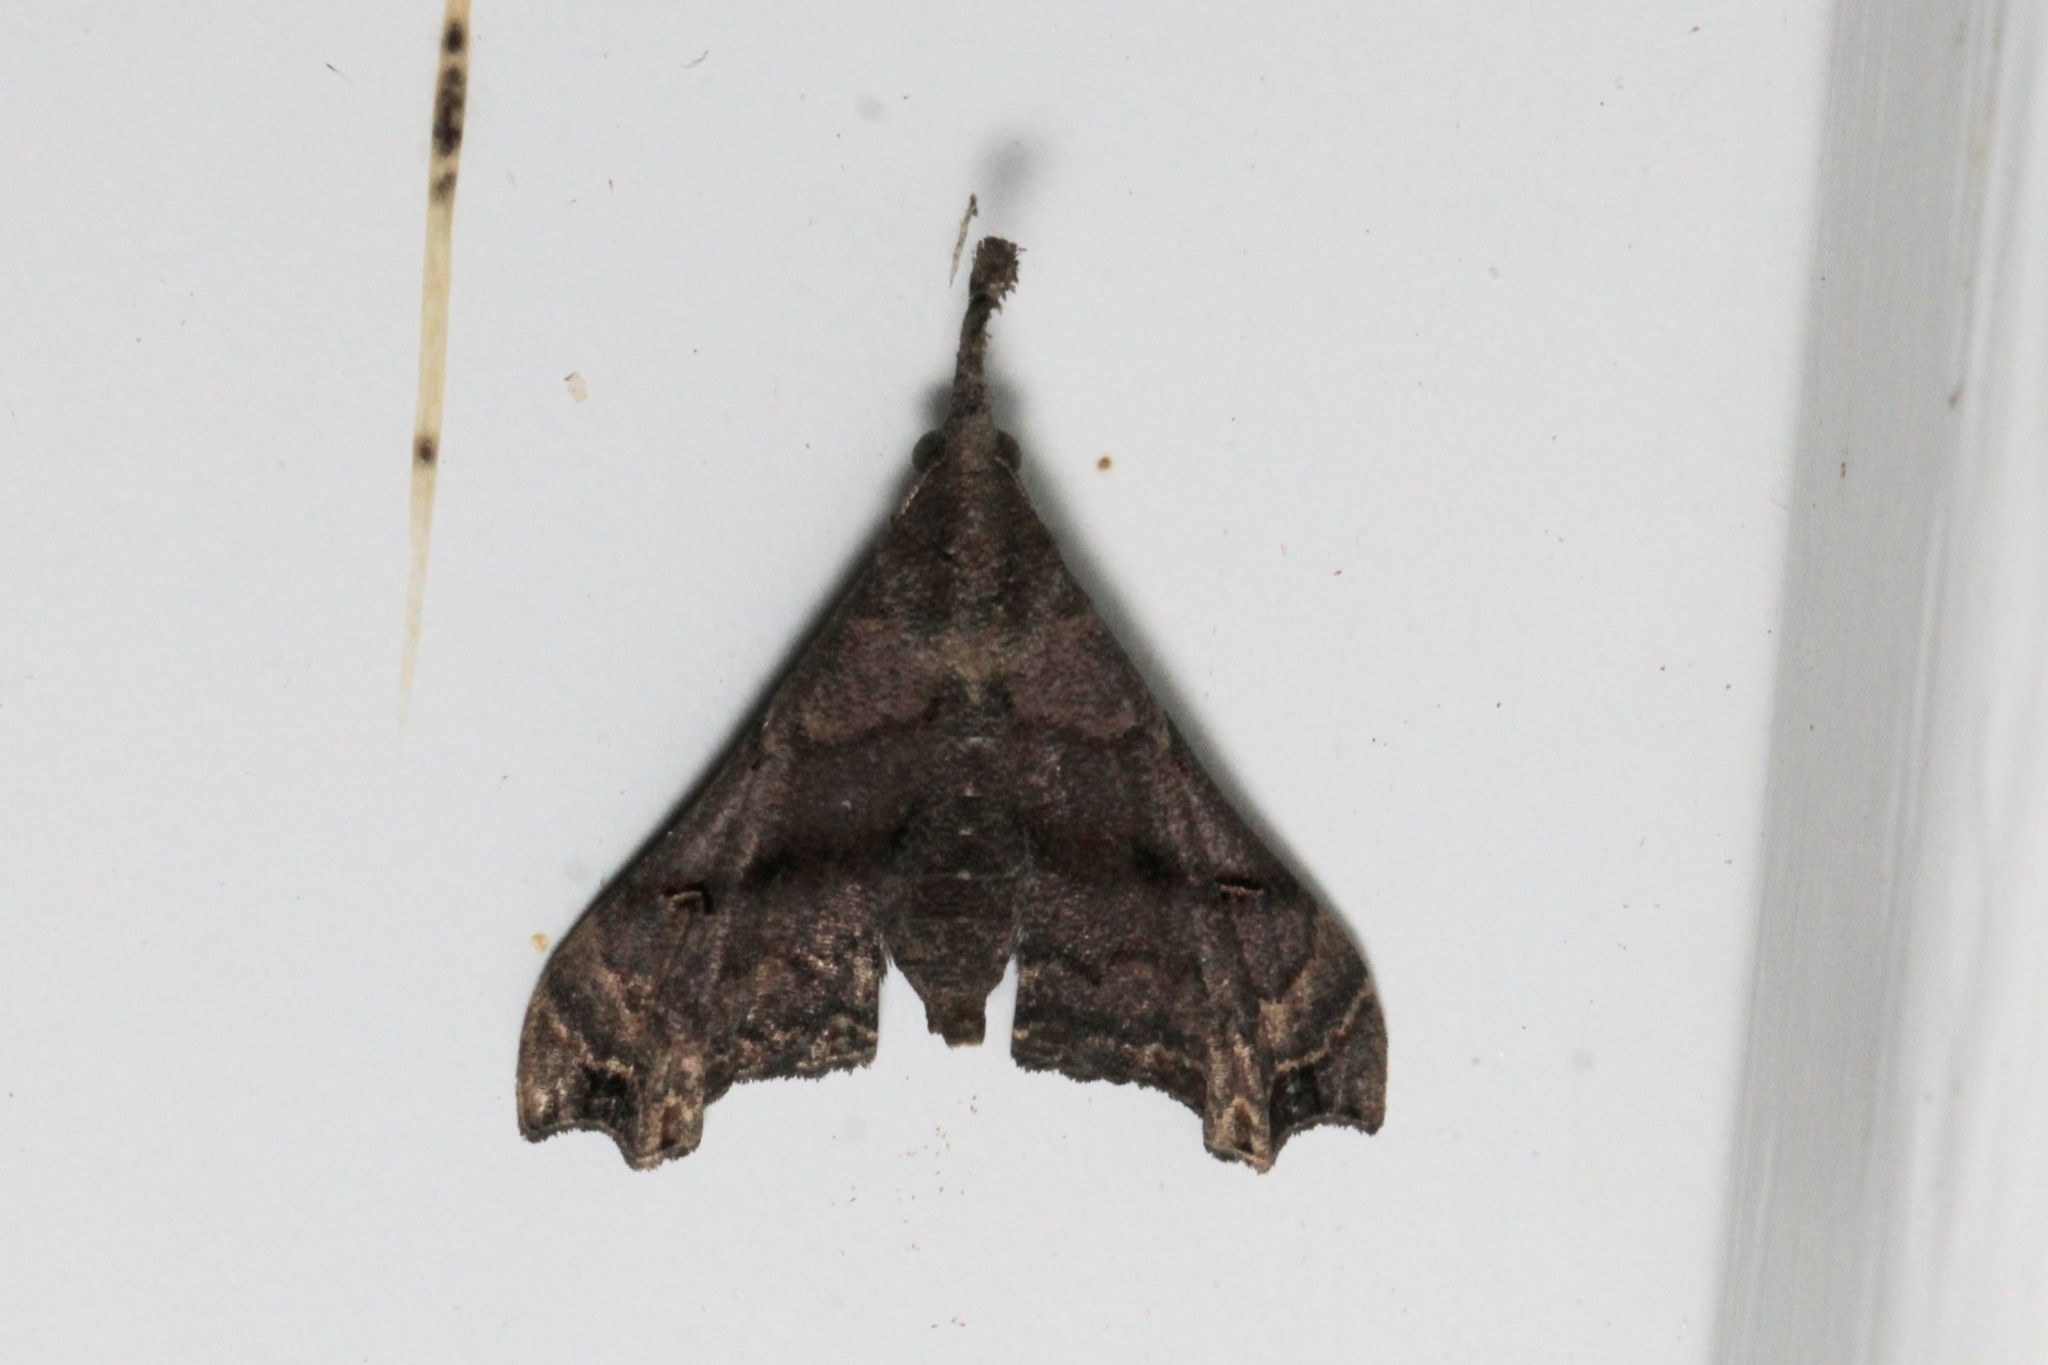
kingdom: Animalia
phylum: Arthropoda
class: Insecta
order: Lepidoptera
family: Erebidae
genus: Palthis
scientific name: Palthis asopialis
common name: Faint-spotted palthis moth
